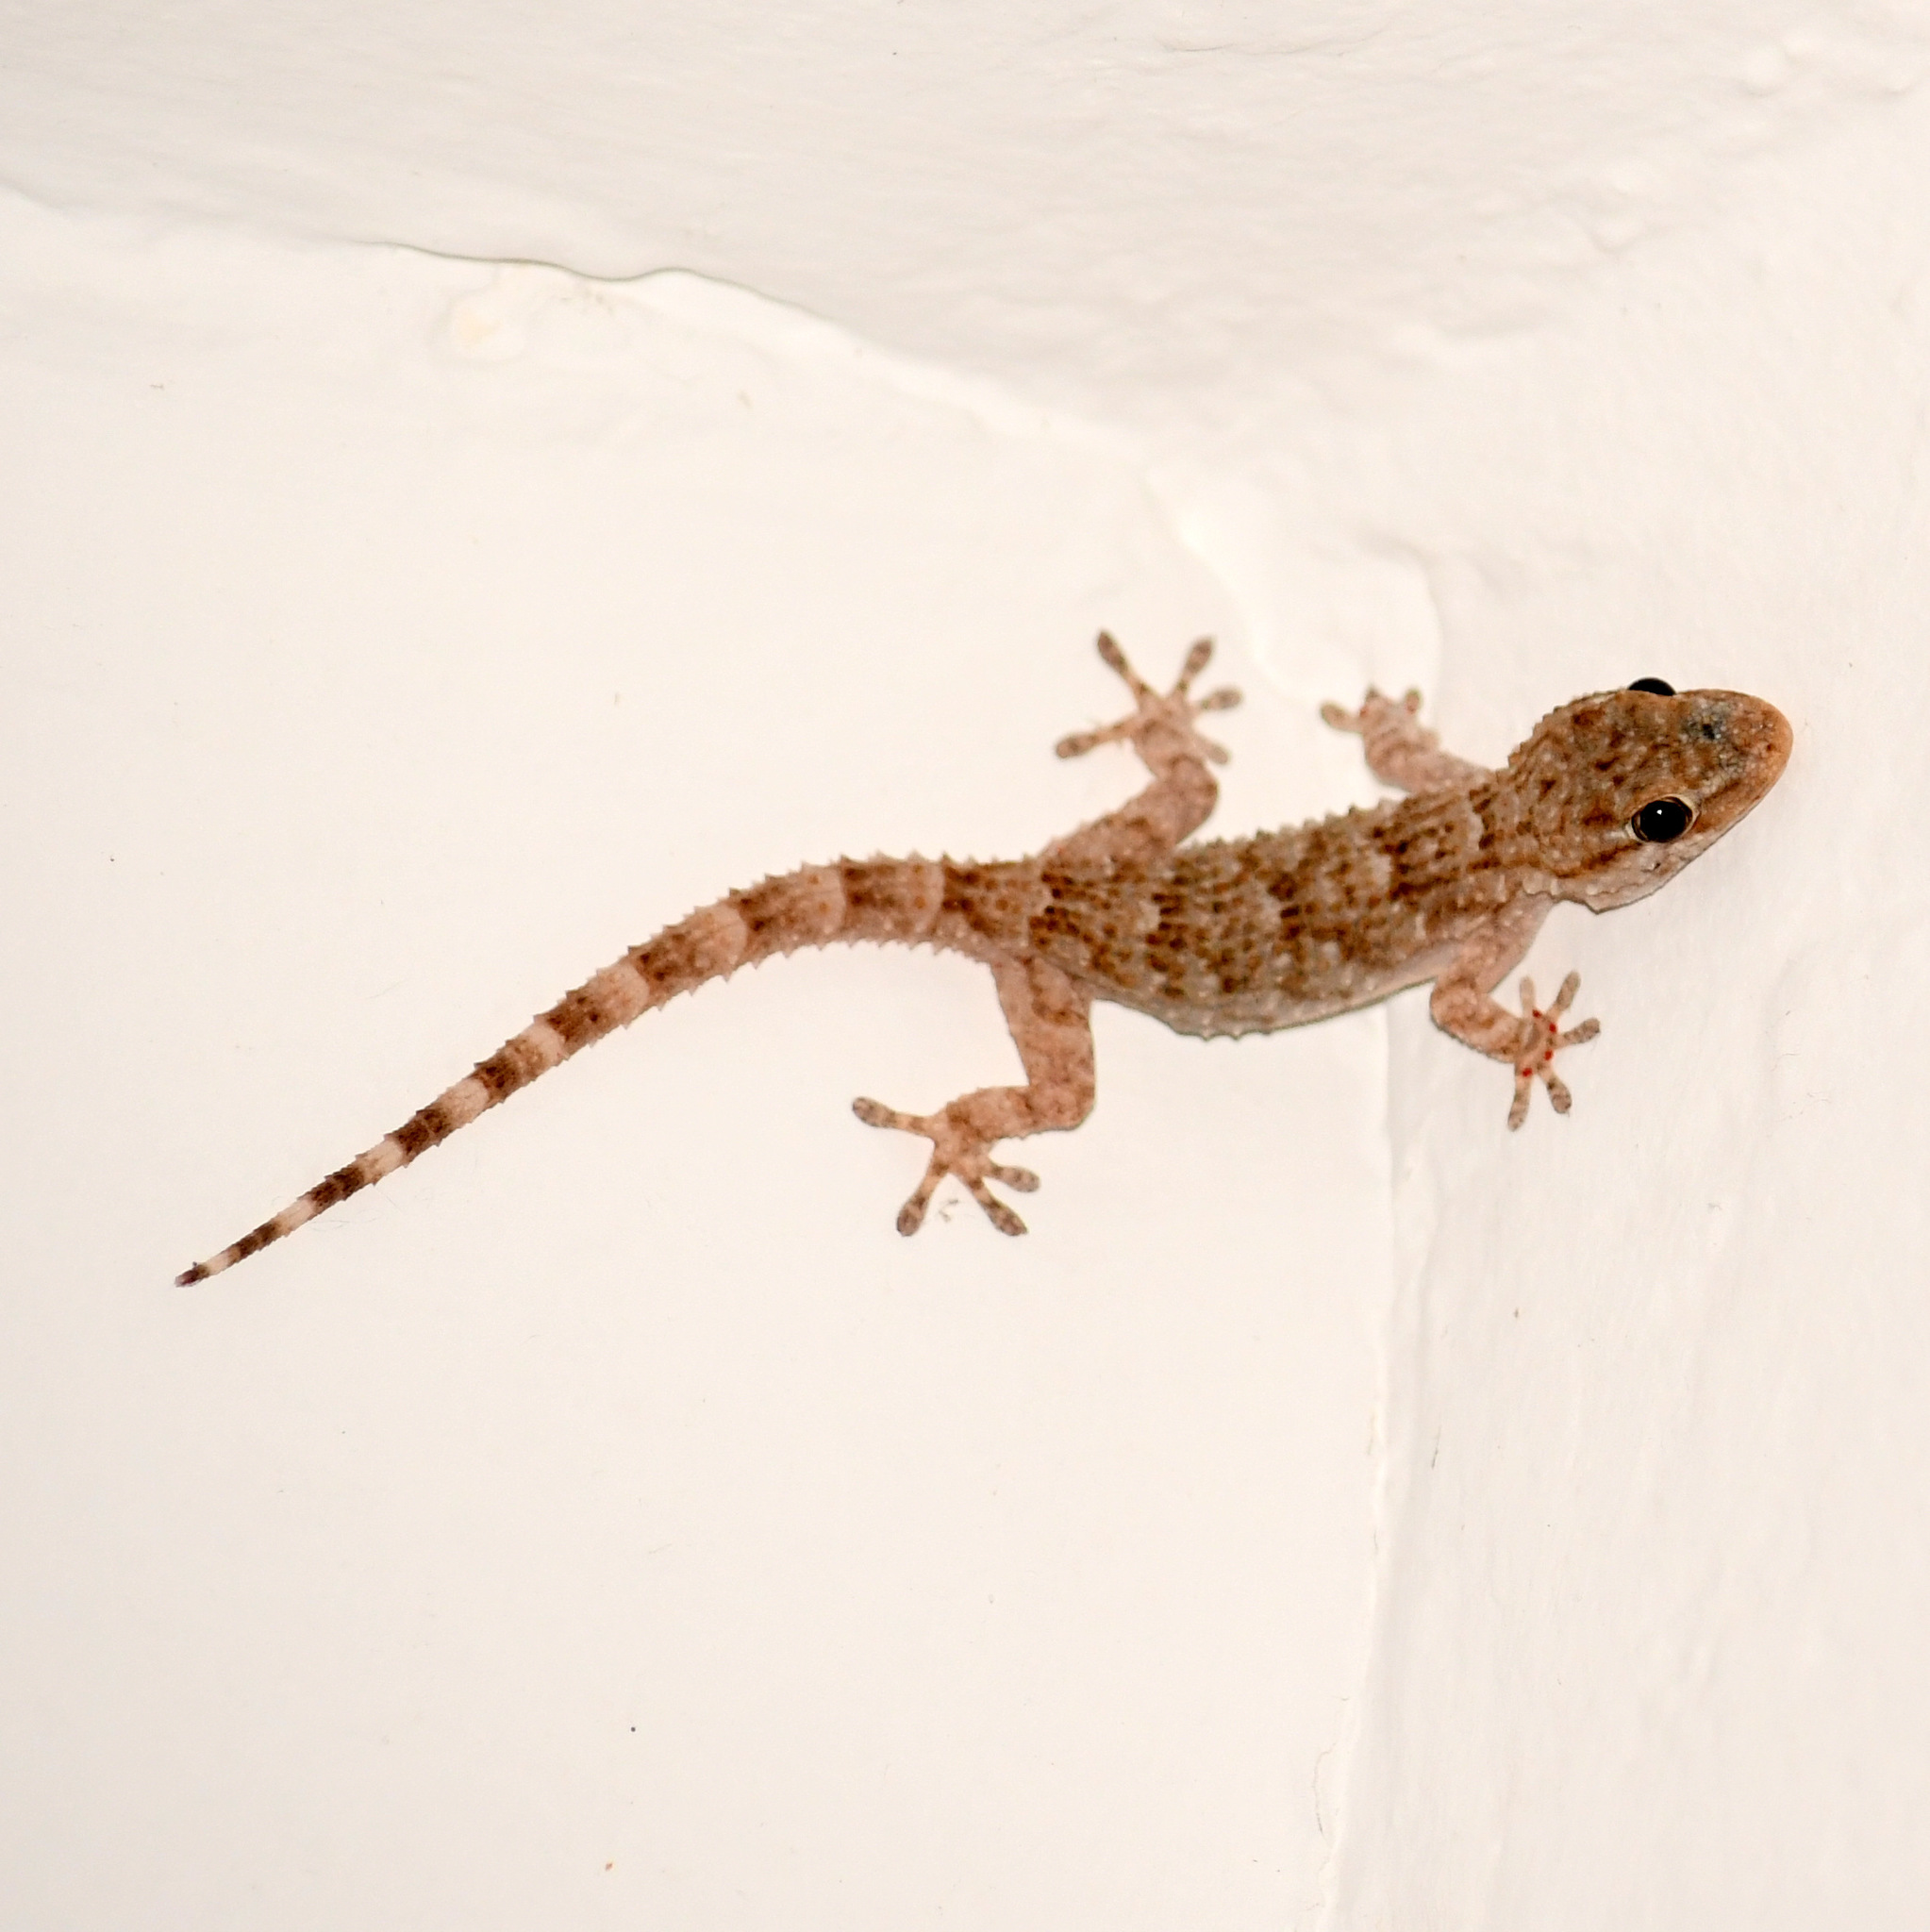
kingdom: Animalia
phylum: Chordata
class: Squamata
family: Phyllodactylidae
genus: Tarentola
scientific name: Tarentola mauritanica
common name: Moorish gecko
